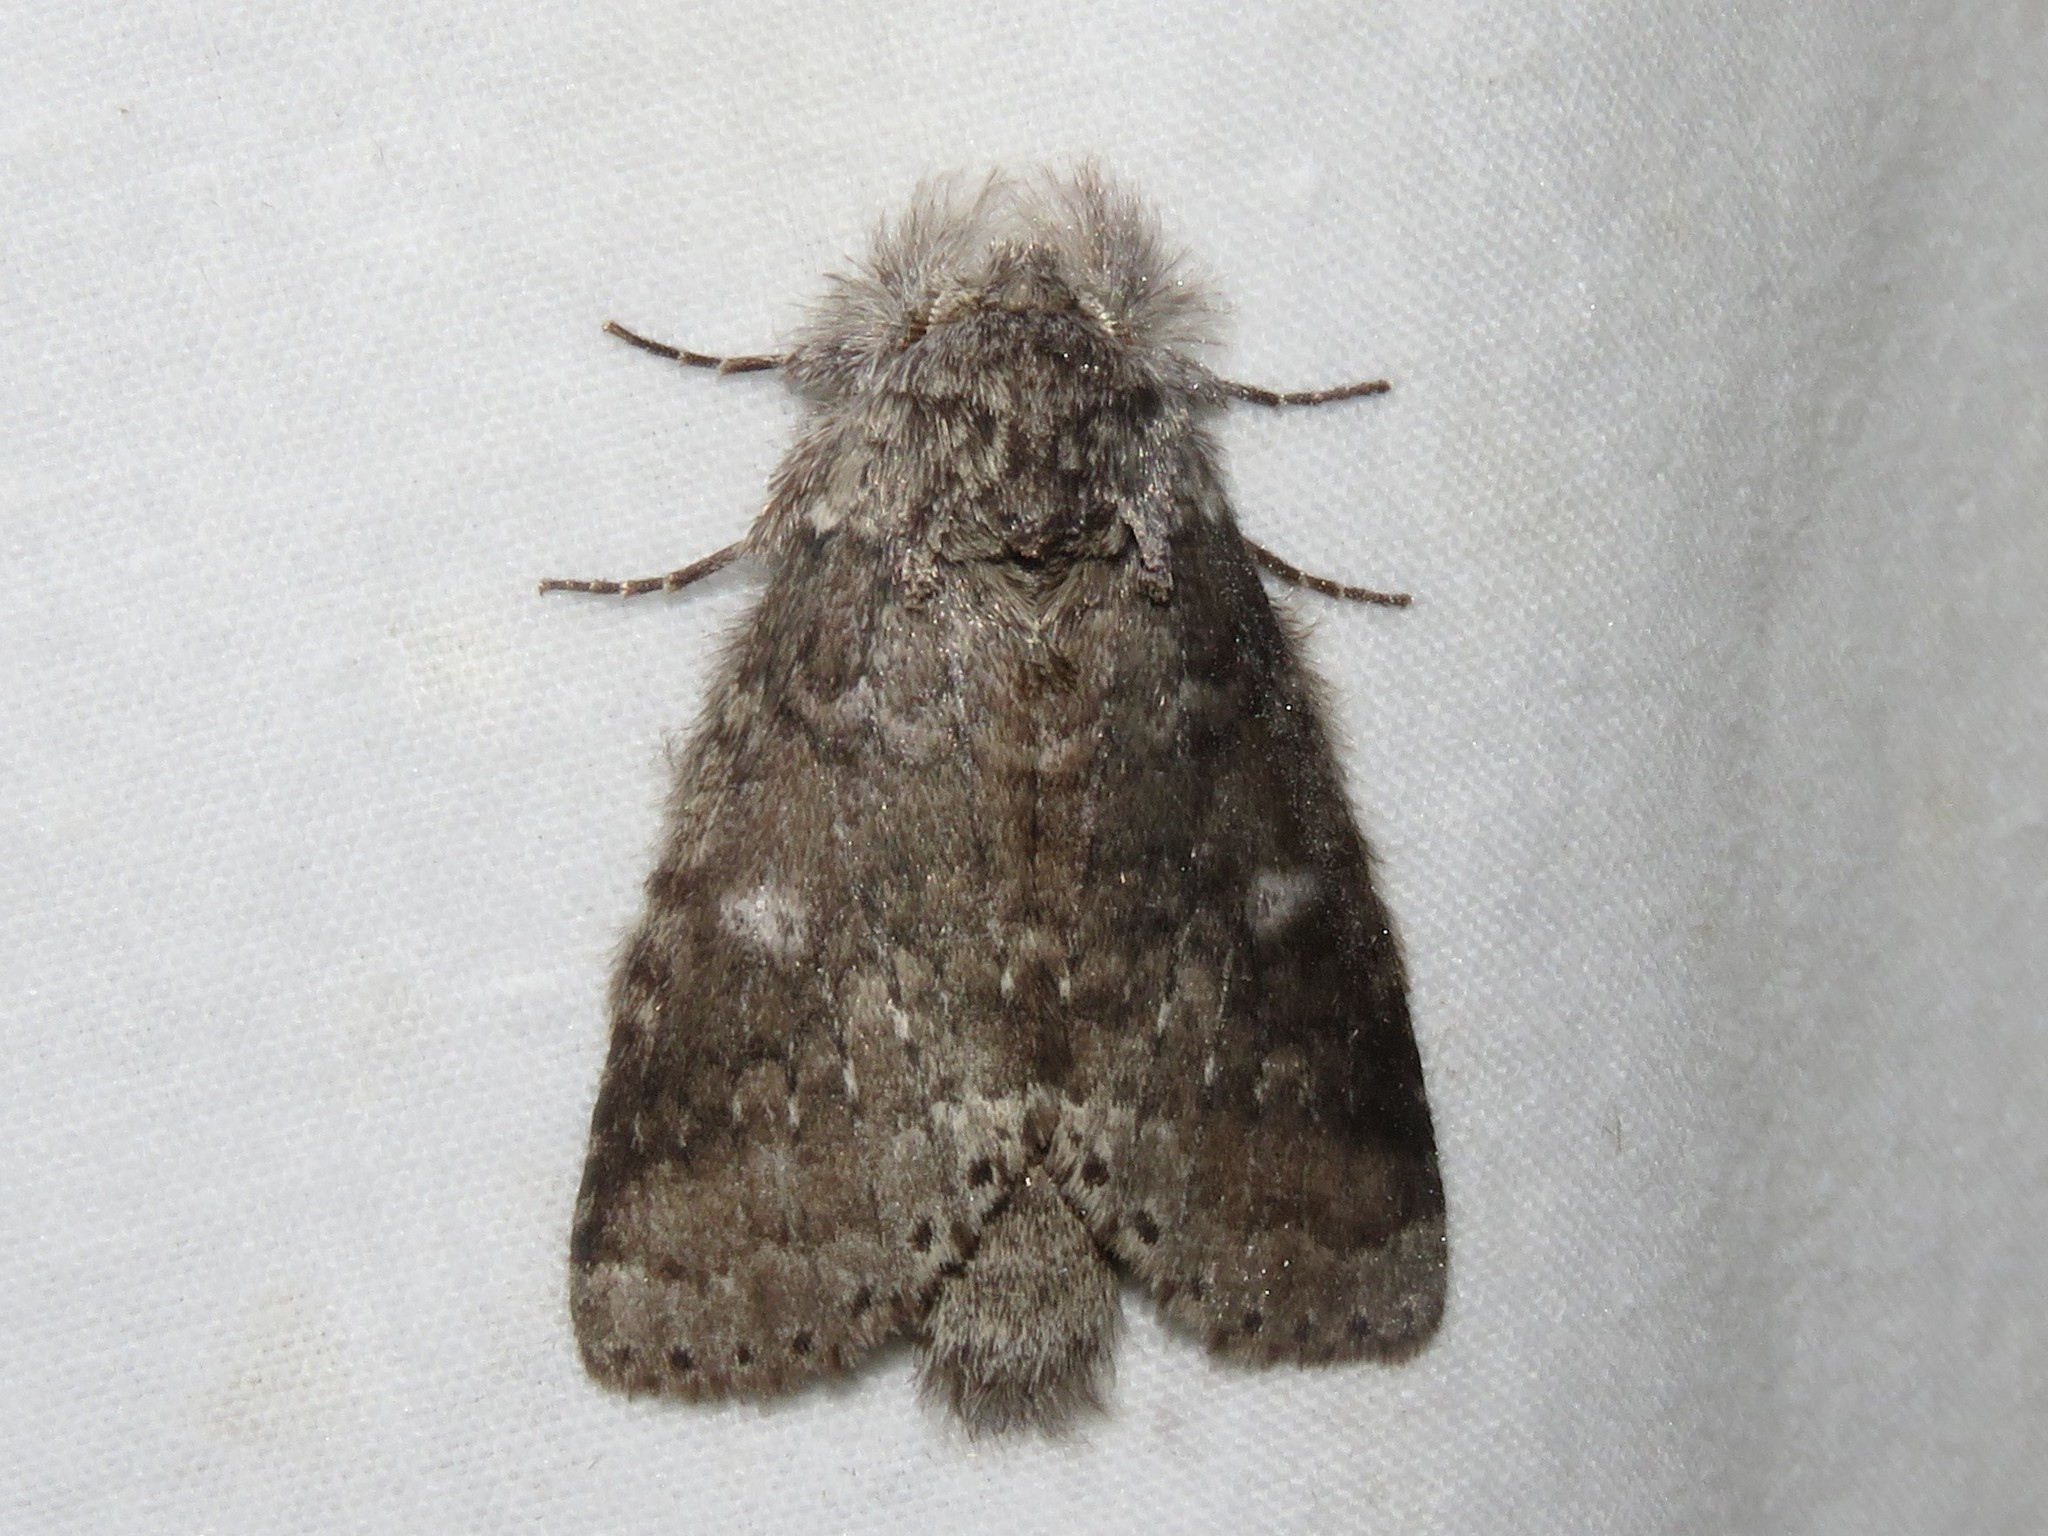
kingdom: Animalia
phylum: Arthropoda
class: Insecta
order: Lepidoptera
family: Notodontidae
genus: Lochmaeus
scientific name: Lochmaeus manteo
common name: Variable oakleaf caterpillar moth
